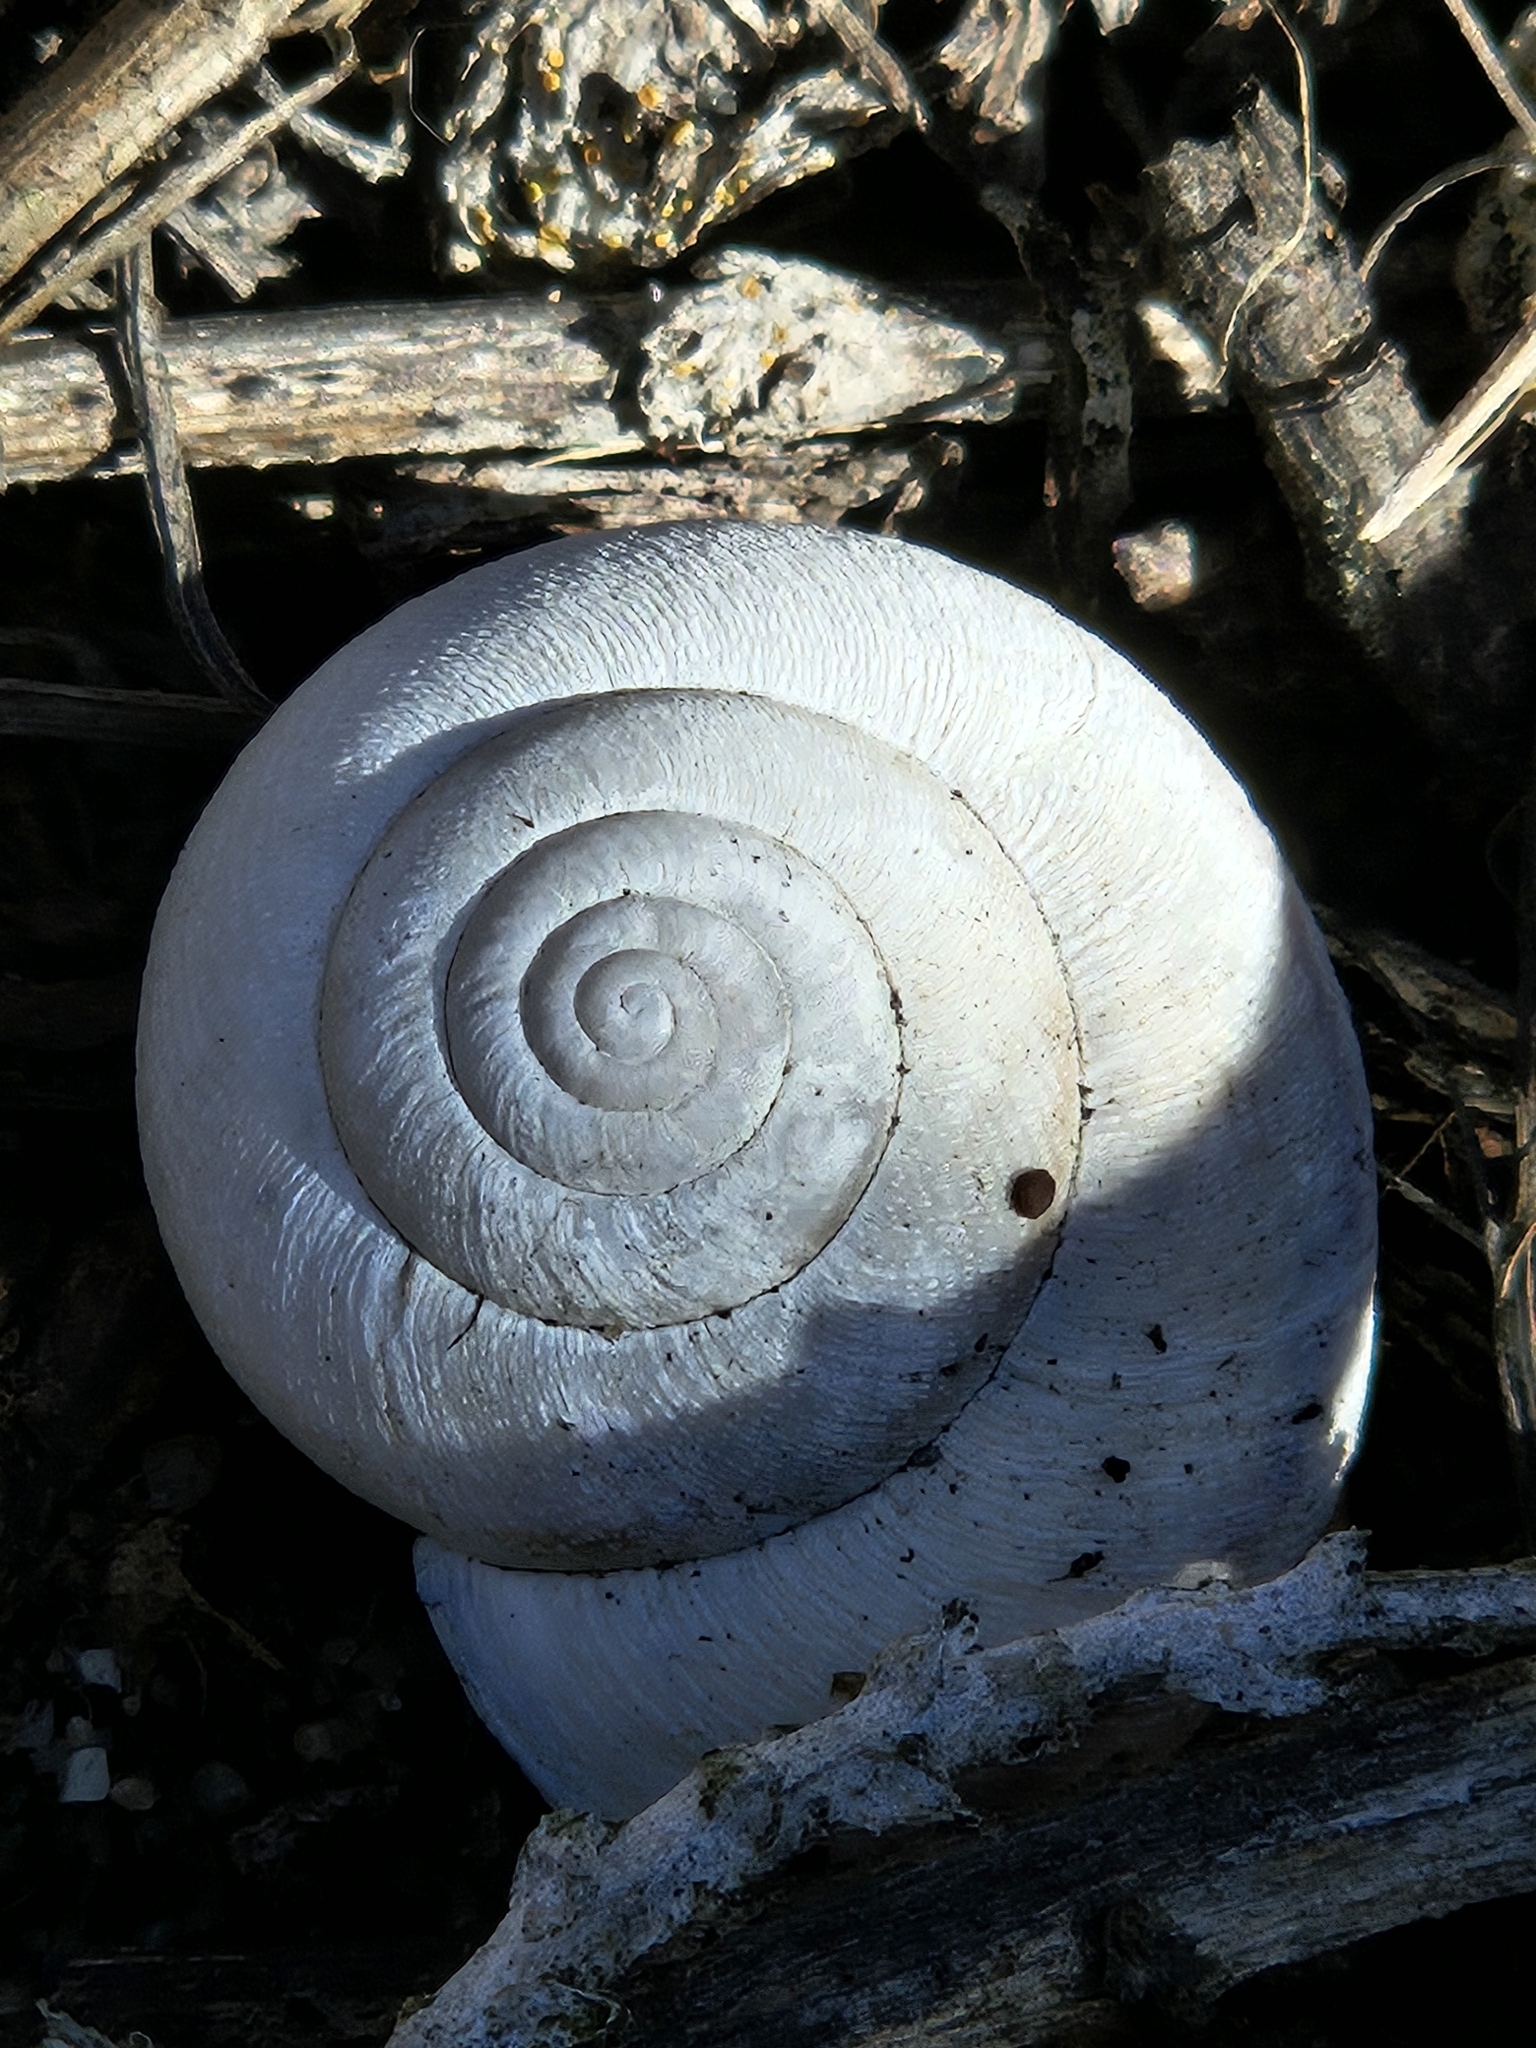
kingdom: Animalia
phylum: Mollusca
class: Gastropoda
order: Stylommatophora
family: Xanthonychidae
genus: Helminthoglypta
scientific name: Helminthoglypta nickliniana
